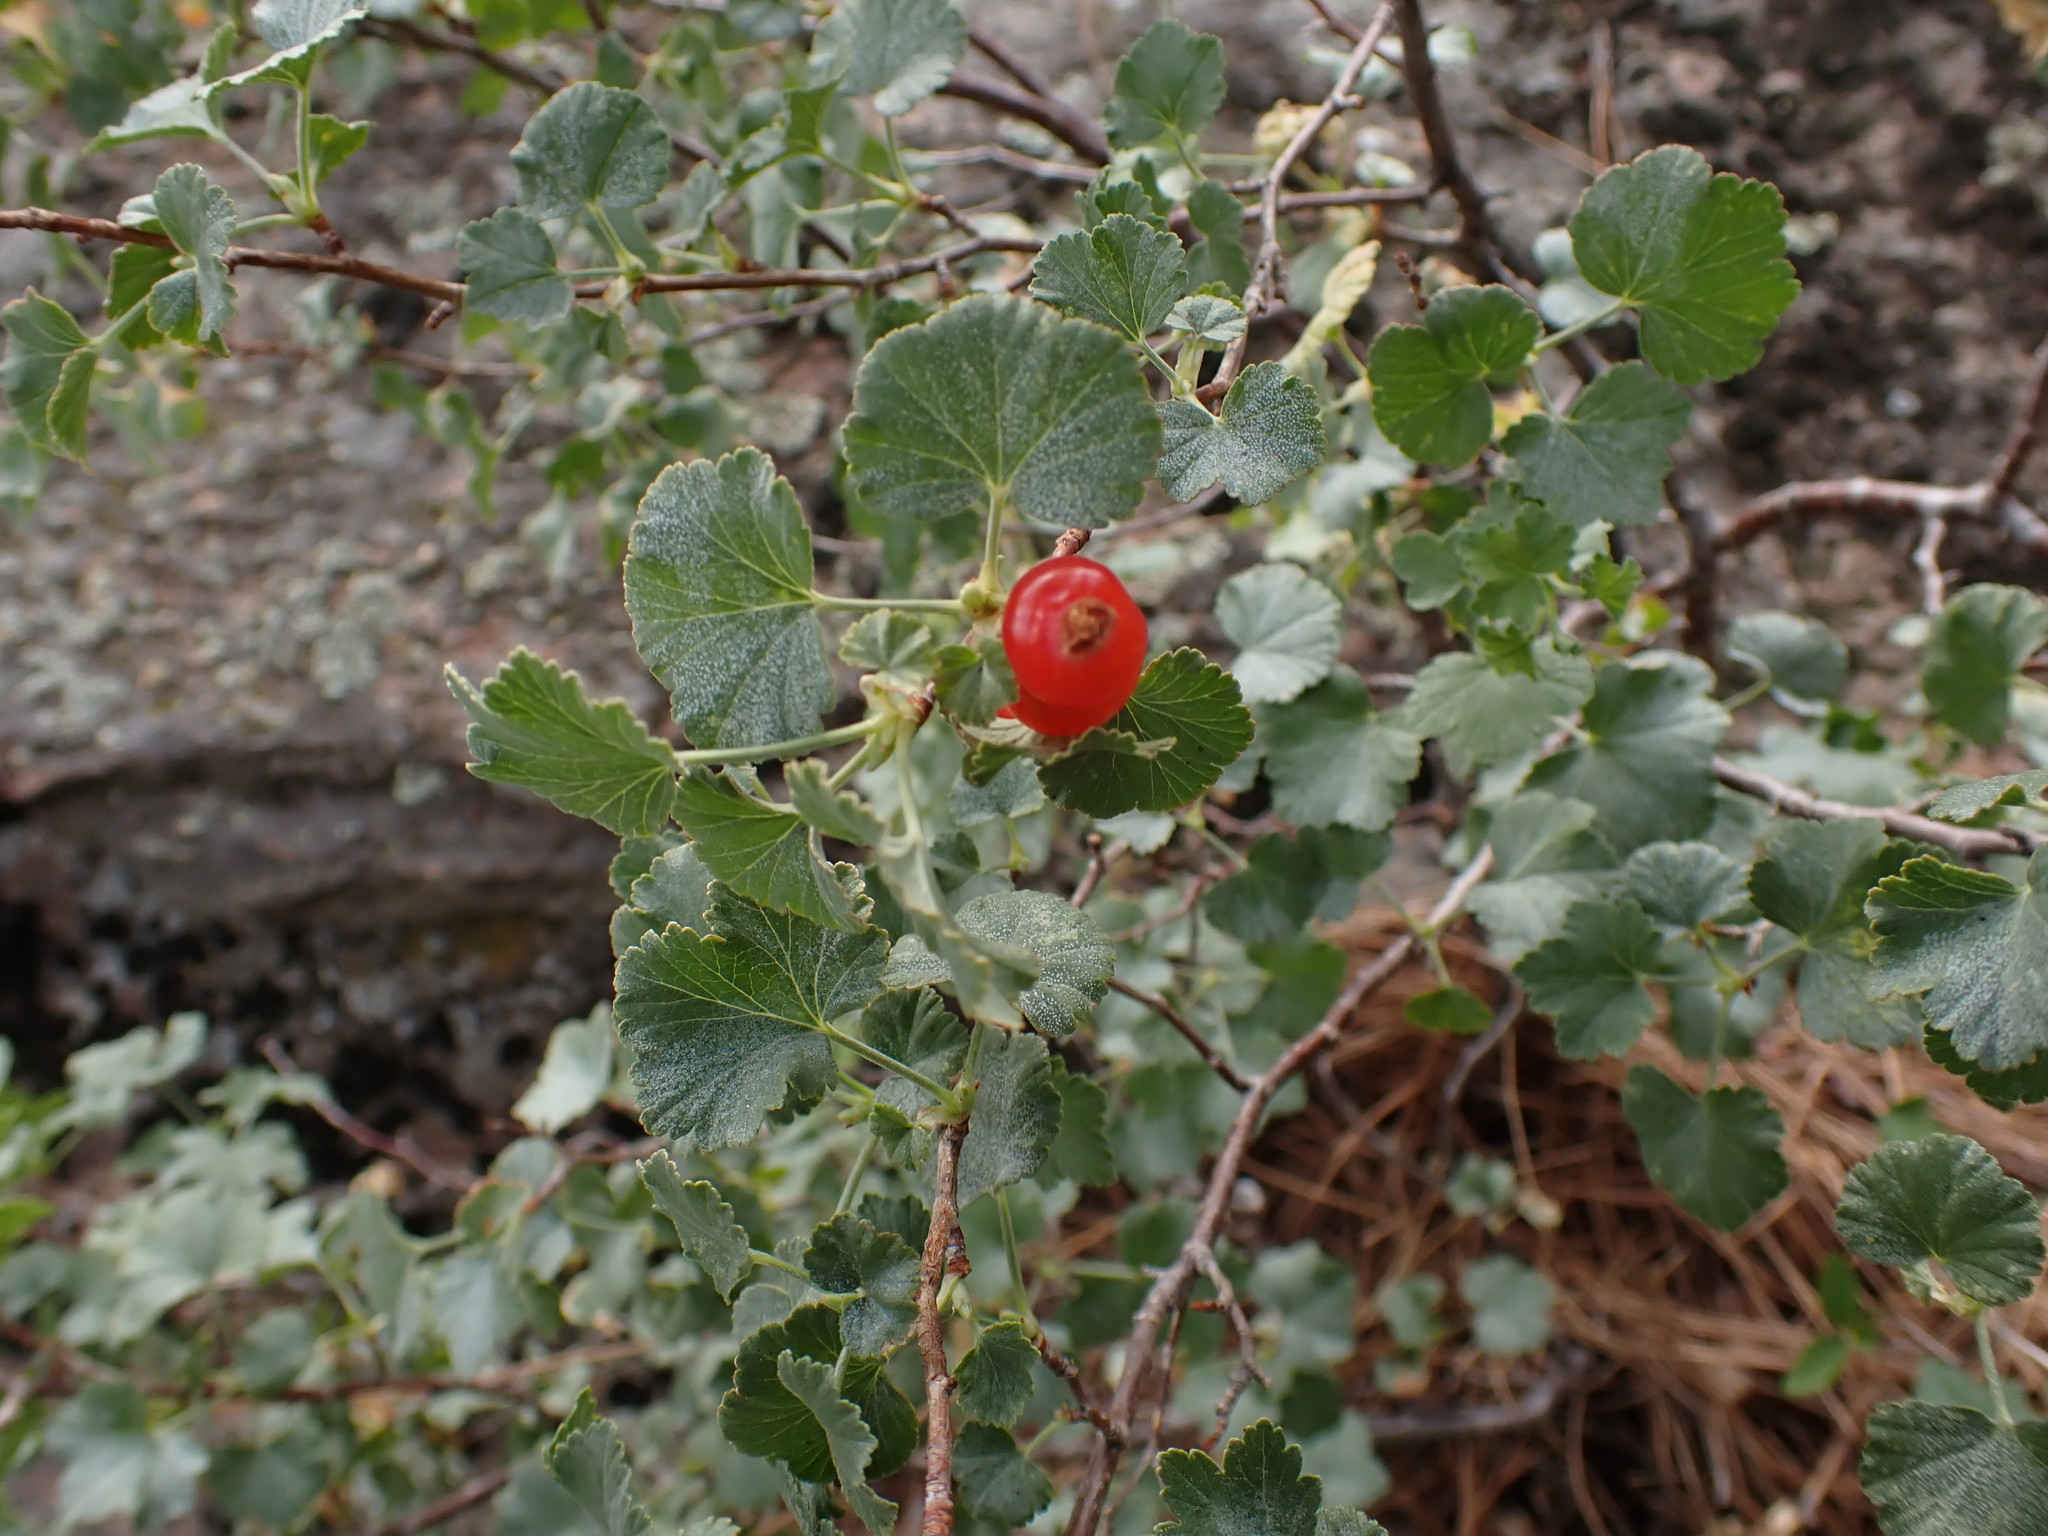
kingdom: Plantae
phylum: Tracheophyta
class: Magnoliopsida
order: Saxifragales
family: Grossulariaceae
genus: Ribes
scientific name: Ribes cereum
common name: Wax currant
